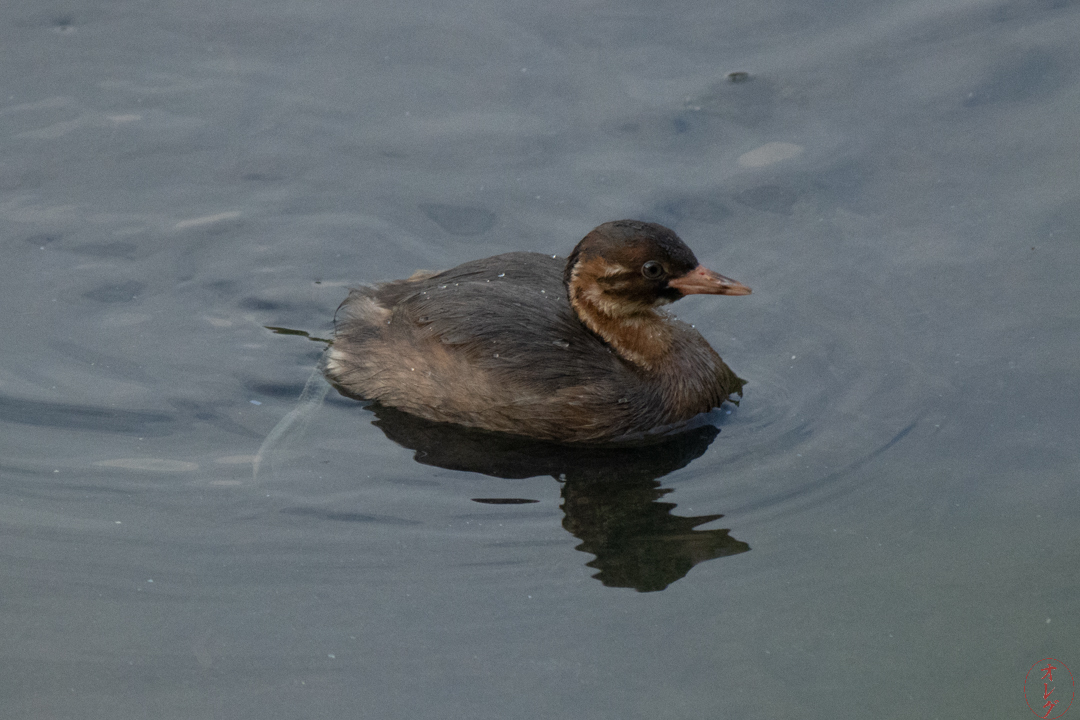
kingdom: Animalia
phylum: Chordata
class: Aves
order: Podicipediformes
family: Podicipedidae
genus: Tachybaptus
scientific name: Tachybaptus ruficollis
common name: Little grebe
